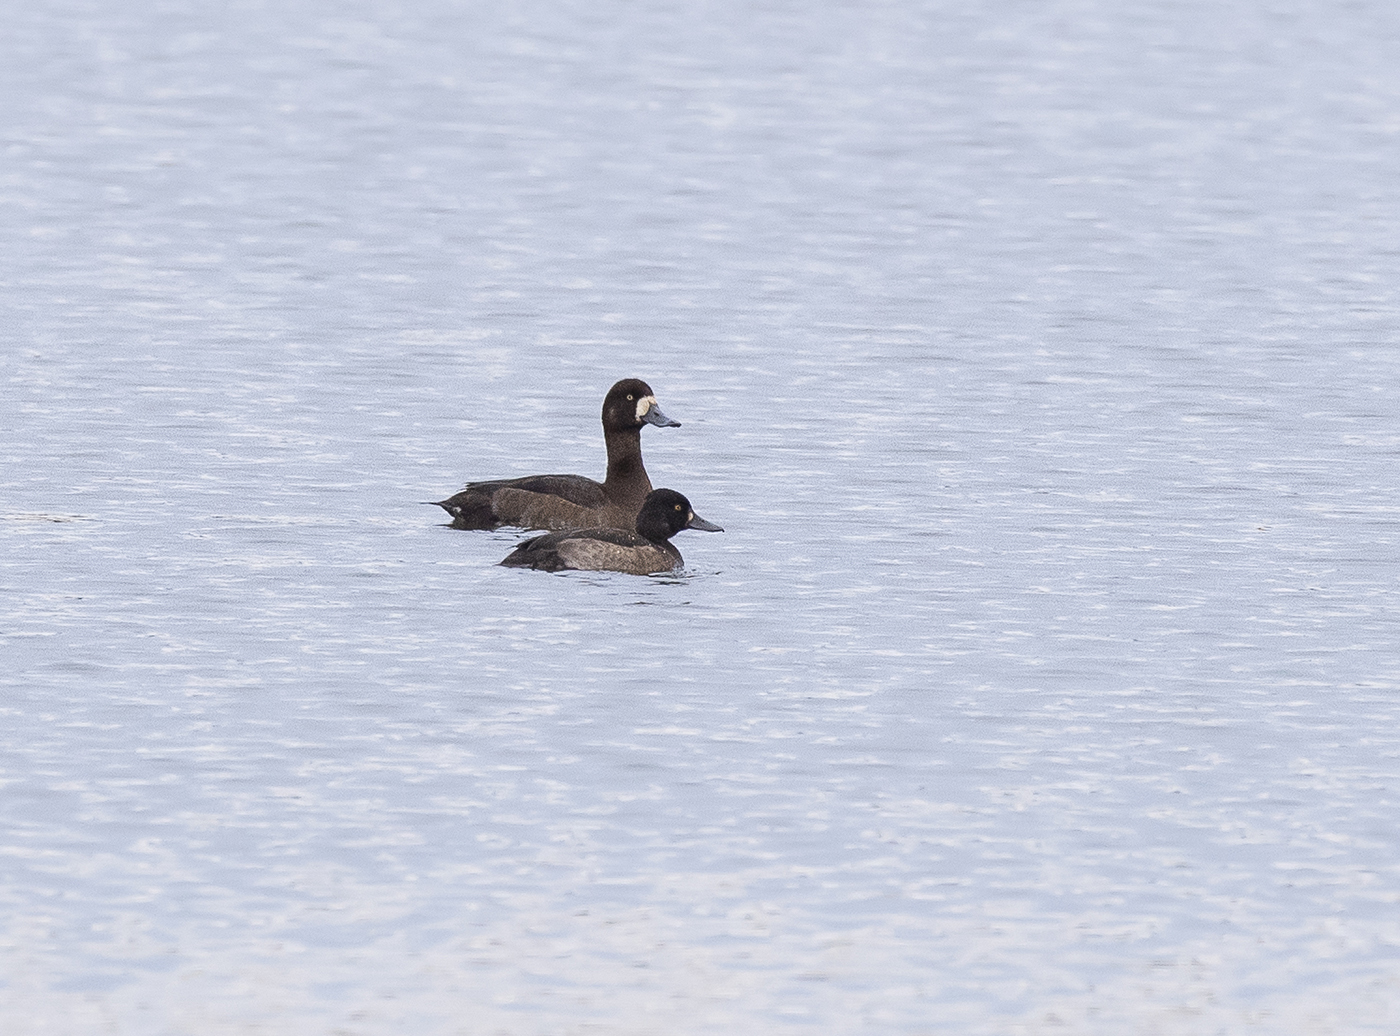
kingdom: Animalia
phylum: Chordata
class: Aves
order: Anseriformes
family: Anatidae
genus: Aythya
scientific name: Aythya marila
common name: Greater scaup
